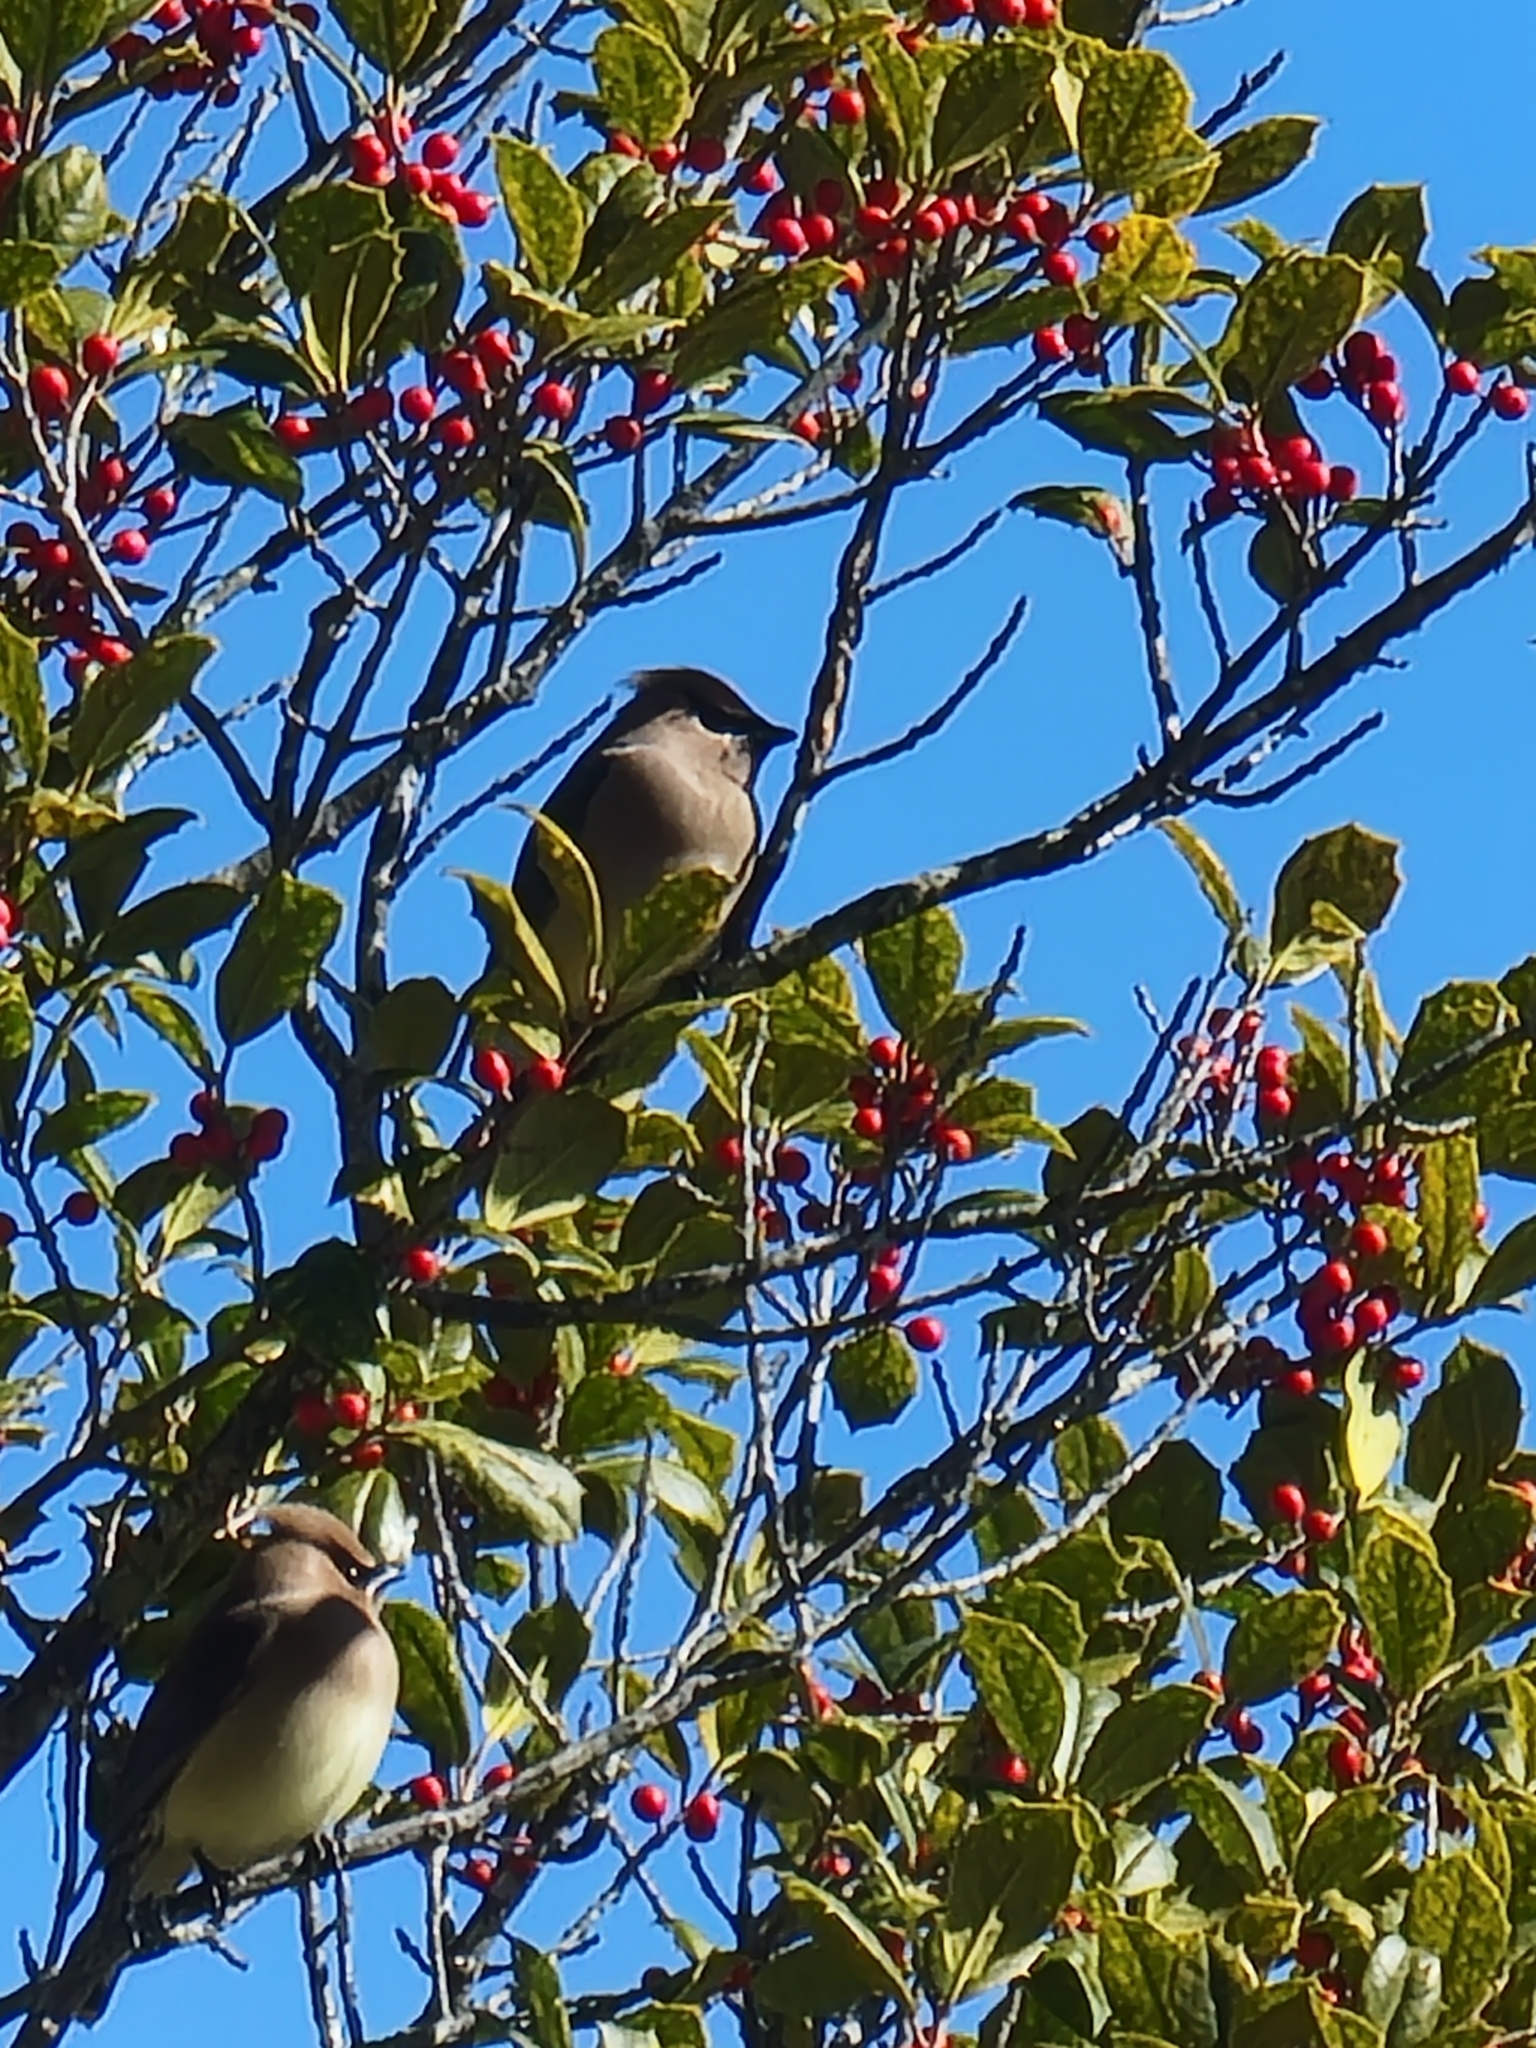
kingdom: Animalia
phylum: Chordata
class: Aves
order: Passeriformes
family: Bombycillidae
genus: Bombycilla
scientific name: Bombycilla cedrorum
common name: Cedar waxwing
